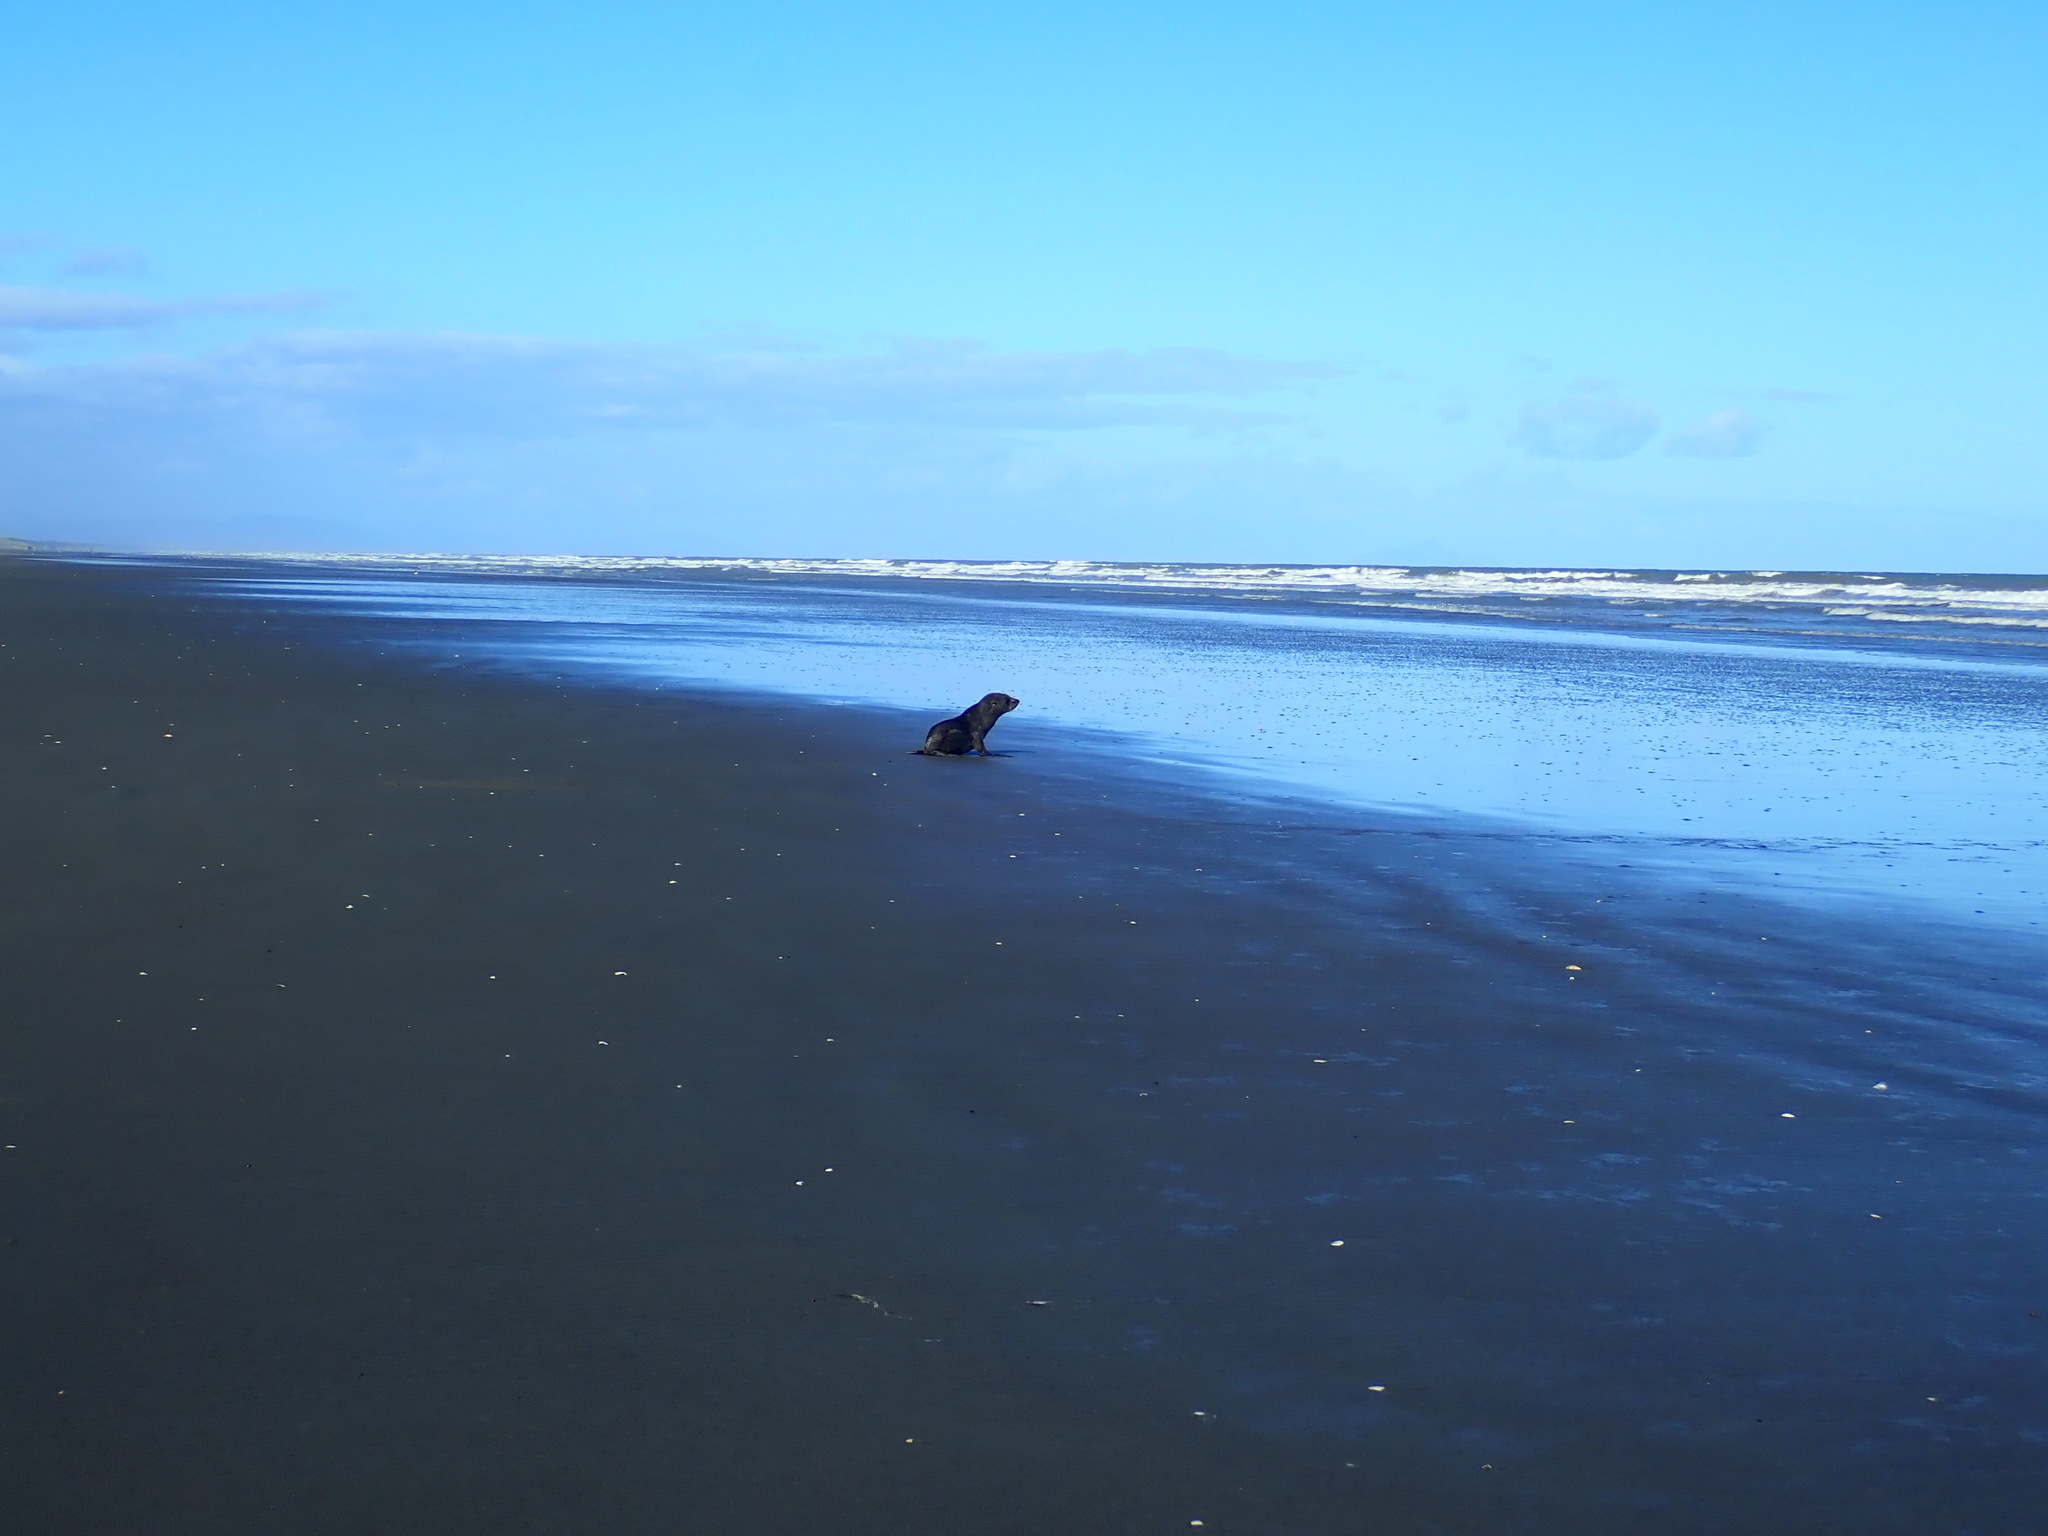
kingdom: Animalia
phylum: Chordata
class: Mammalia
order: Carnivora
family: Otariidae
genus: Arctocephalus
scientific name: Arctocephalus forsteri
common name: New zealand fur seal
